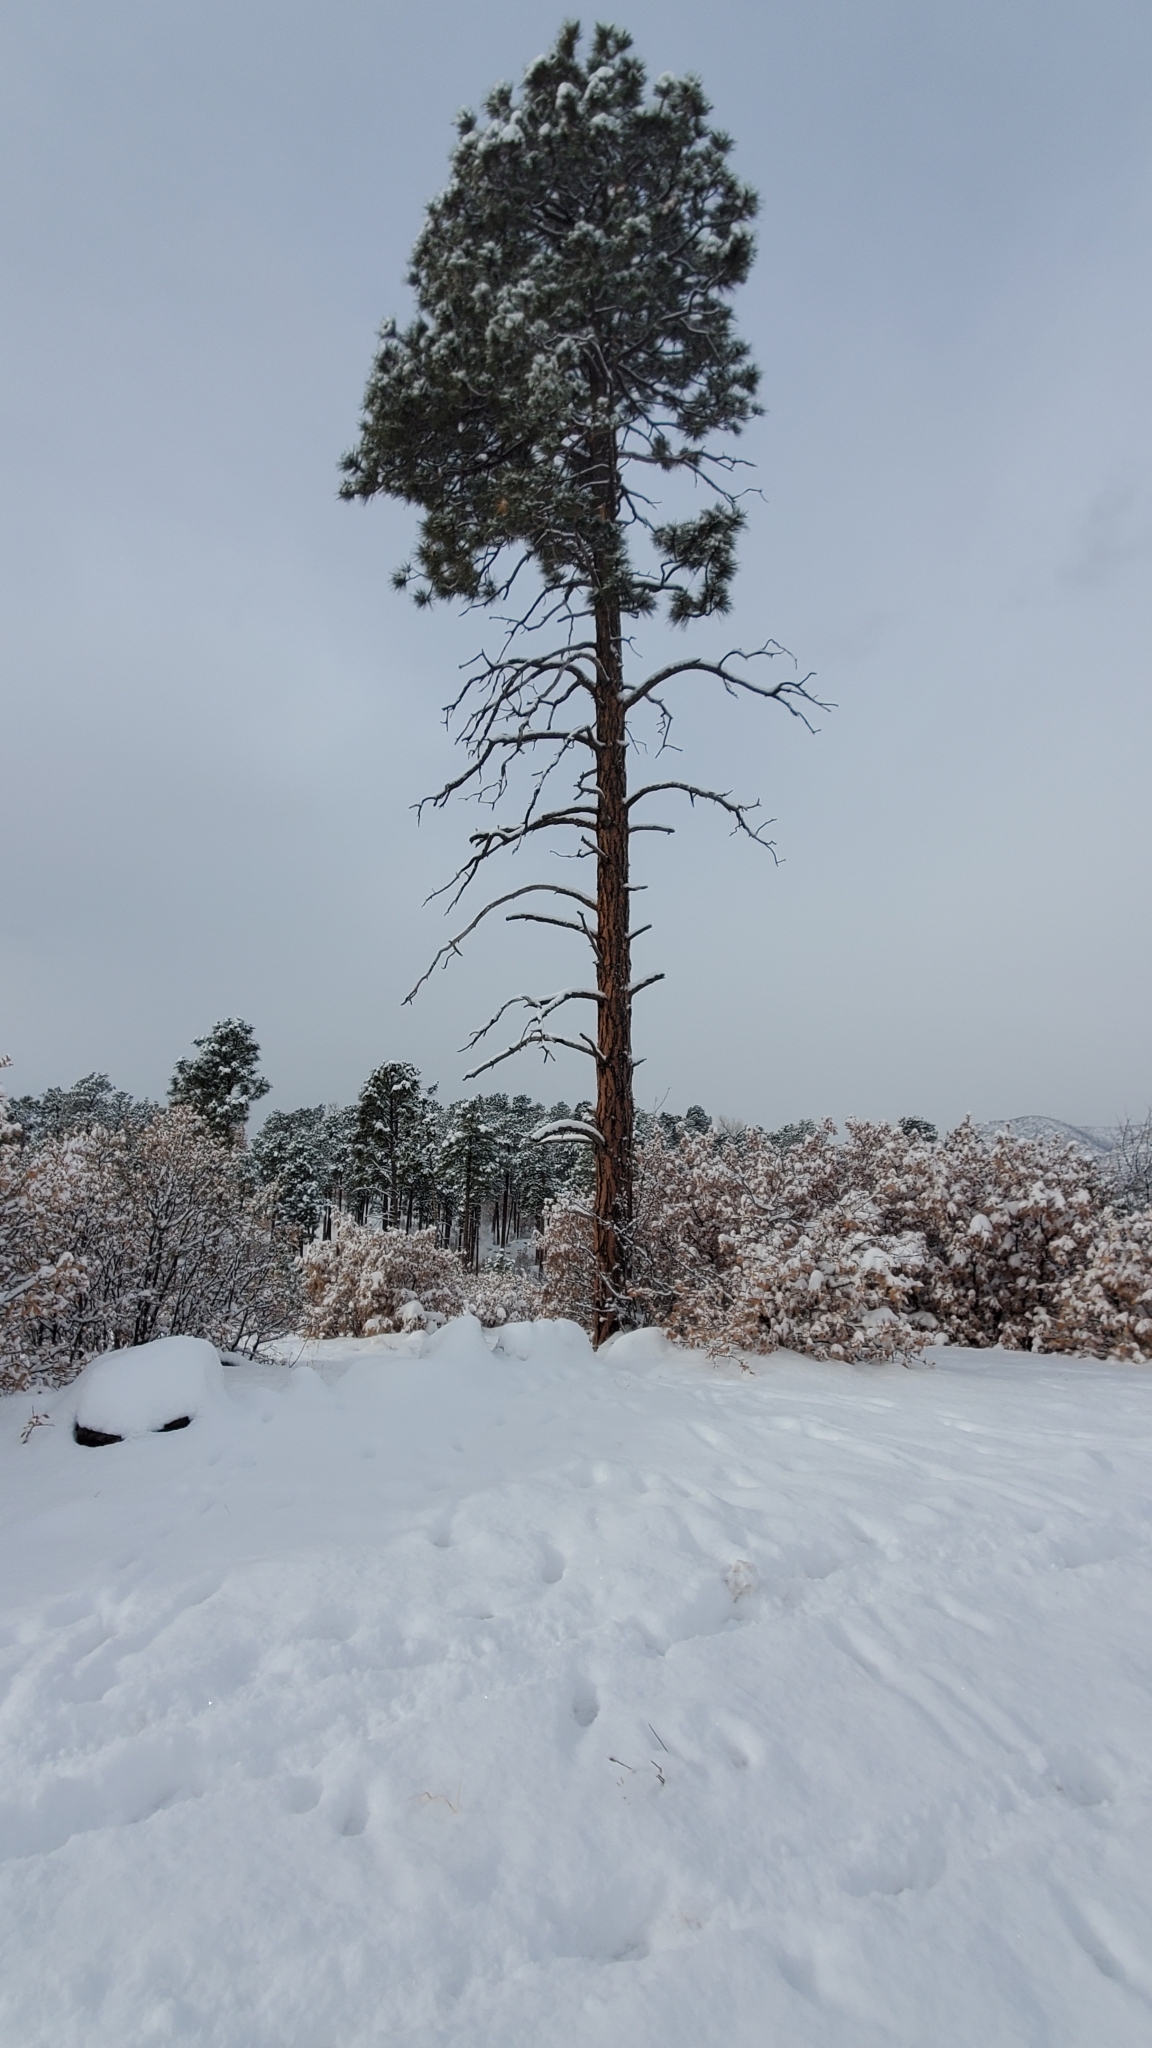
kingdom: Plantae
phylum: Tracheophyta
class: Pinopsida
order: Pinales
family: Pinaceae
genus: Pinus
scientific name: Pinus ponderosa
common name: Western yellow-pine
